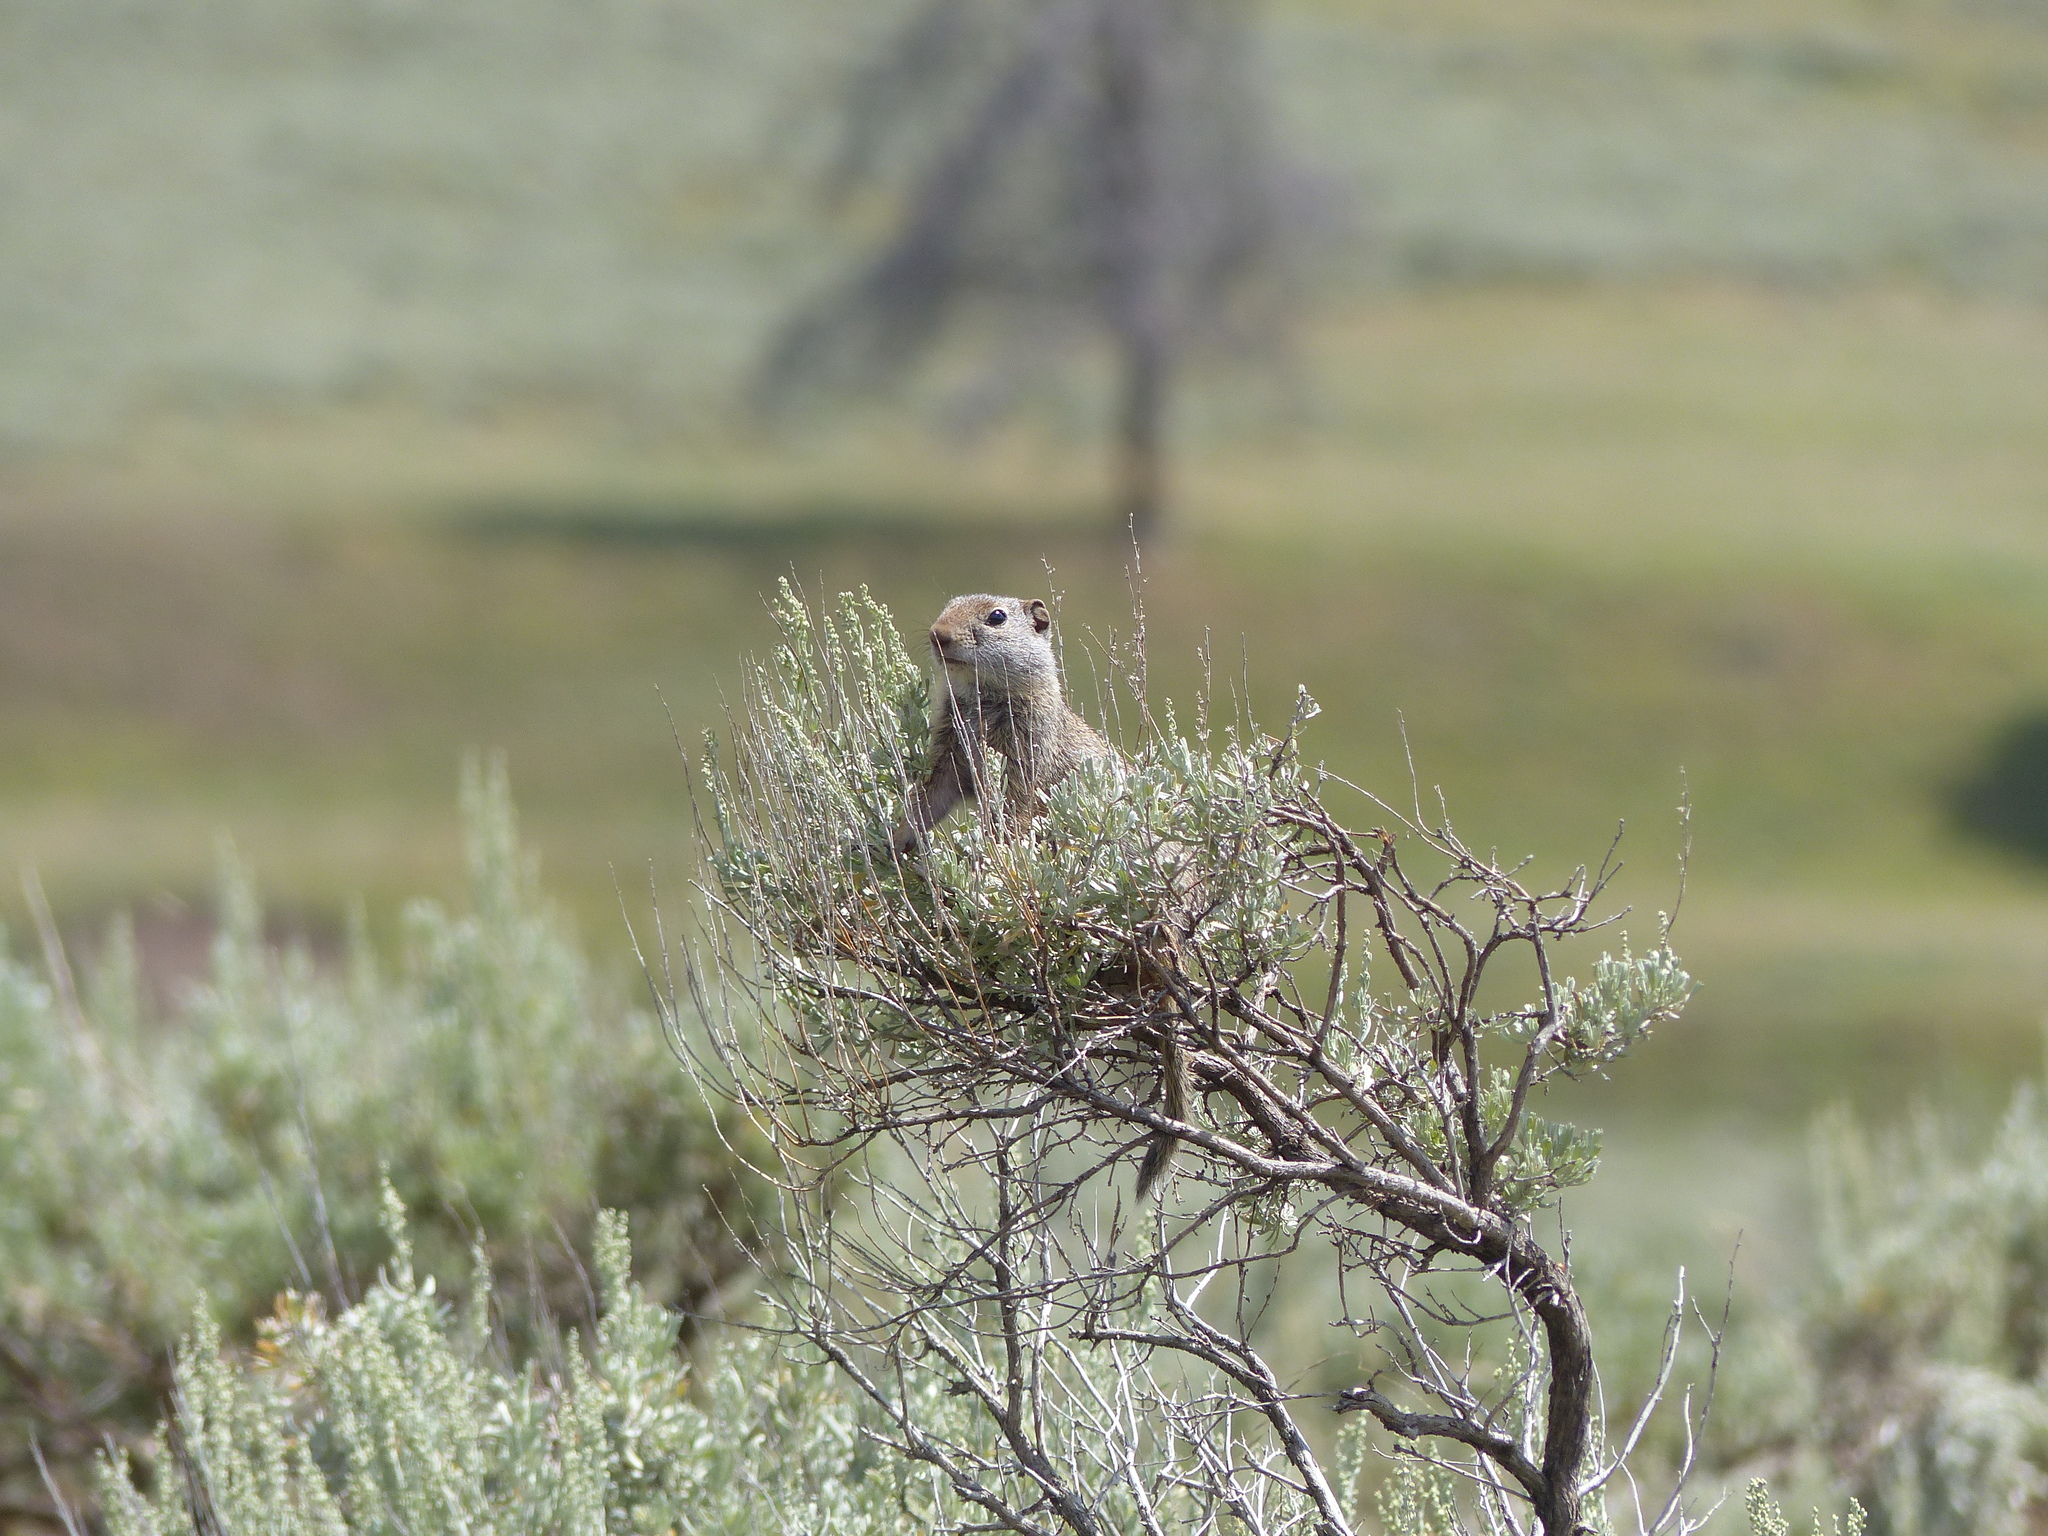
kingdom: Animalia
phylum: Chordata
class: Mammalia
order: Rodentia
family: Sciuridae
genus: Urocitellus
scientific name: Urocitellus armatus
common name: Uinta ground squirrel
